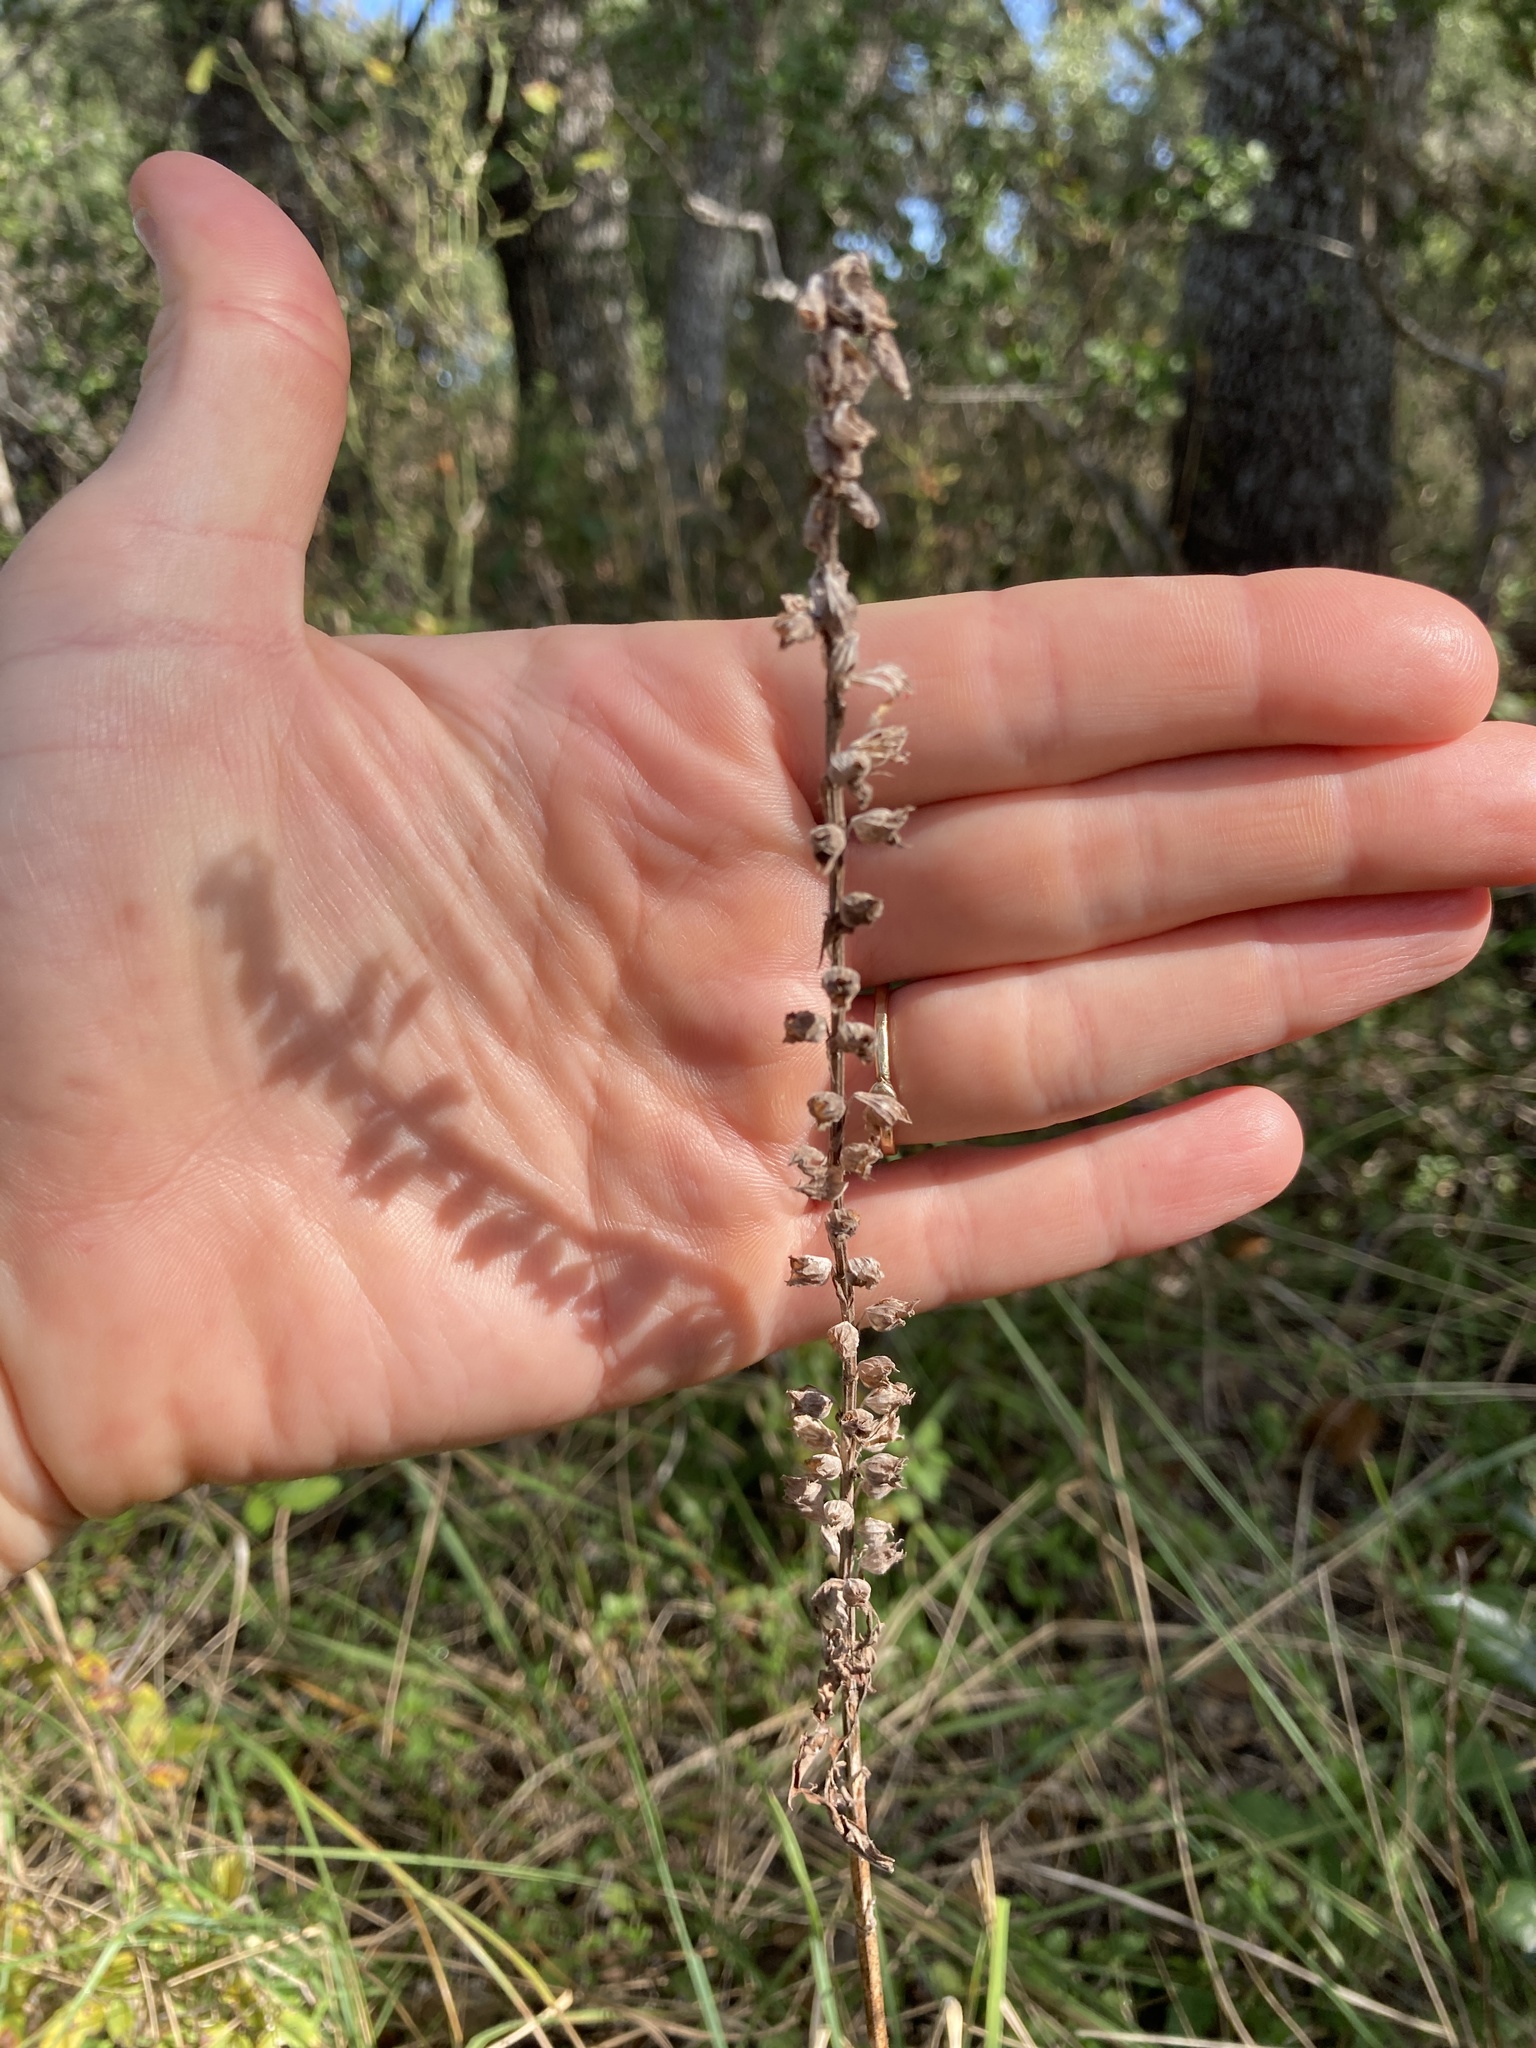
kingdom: Plantae
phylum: Tracheophyta
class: Magnoliopsida
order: Lamiales
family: Lamiaceae
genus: Teucrium
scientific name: Teucrium canadense
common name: American germander
